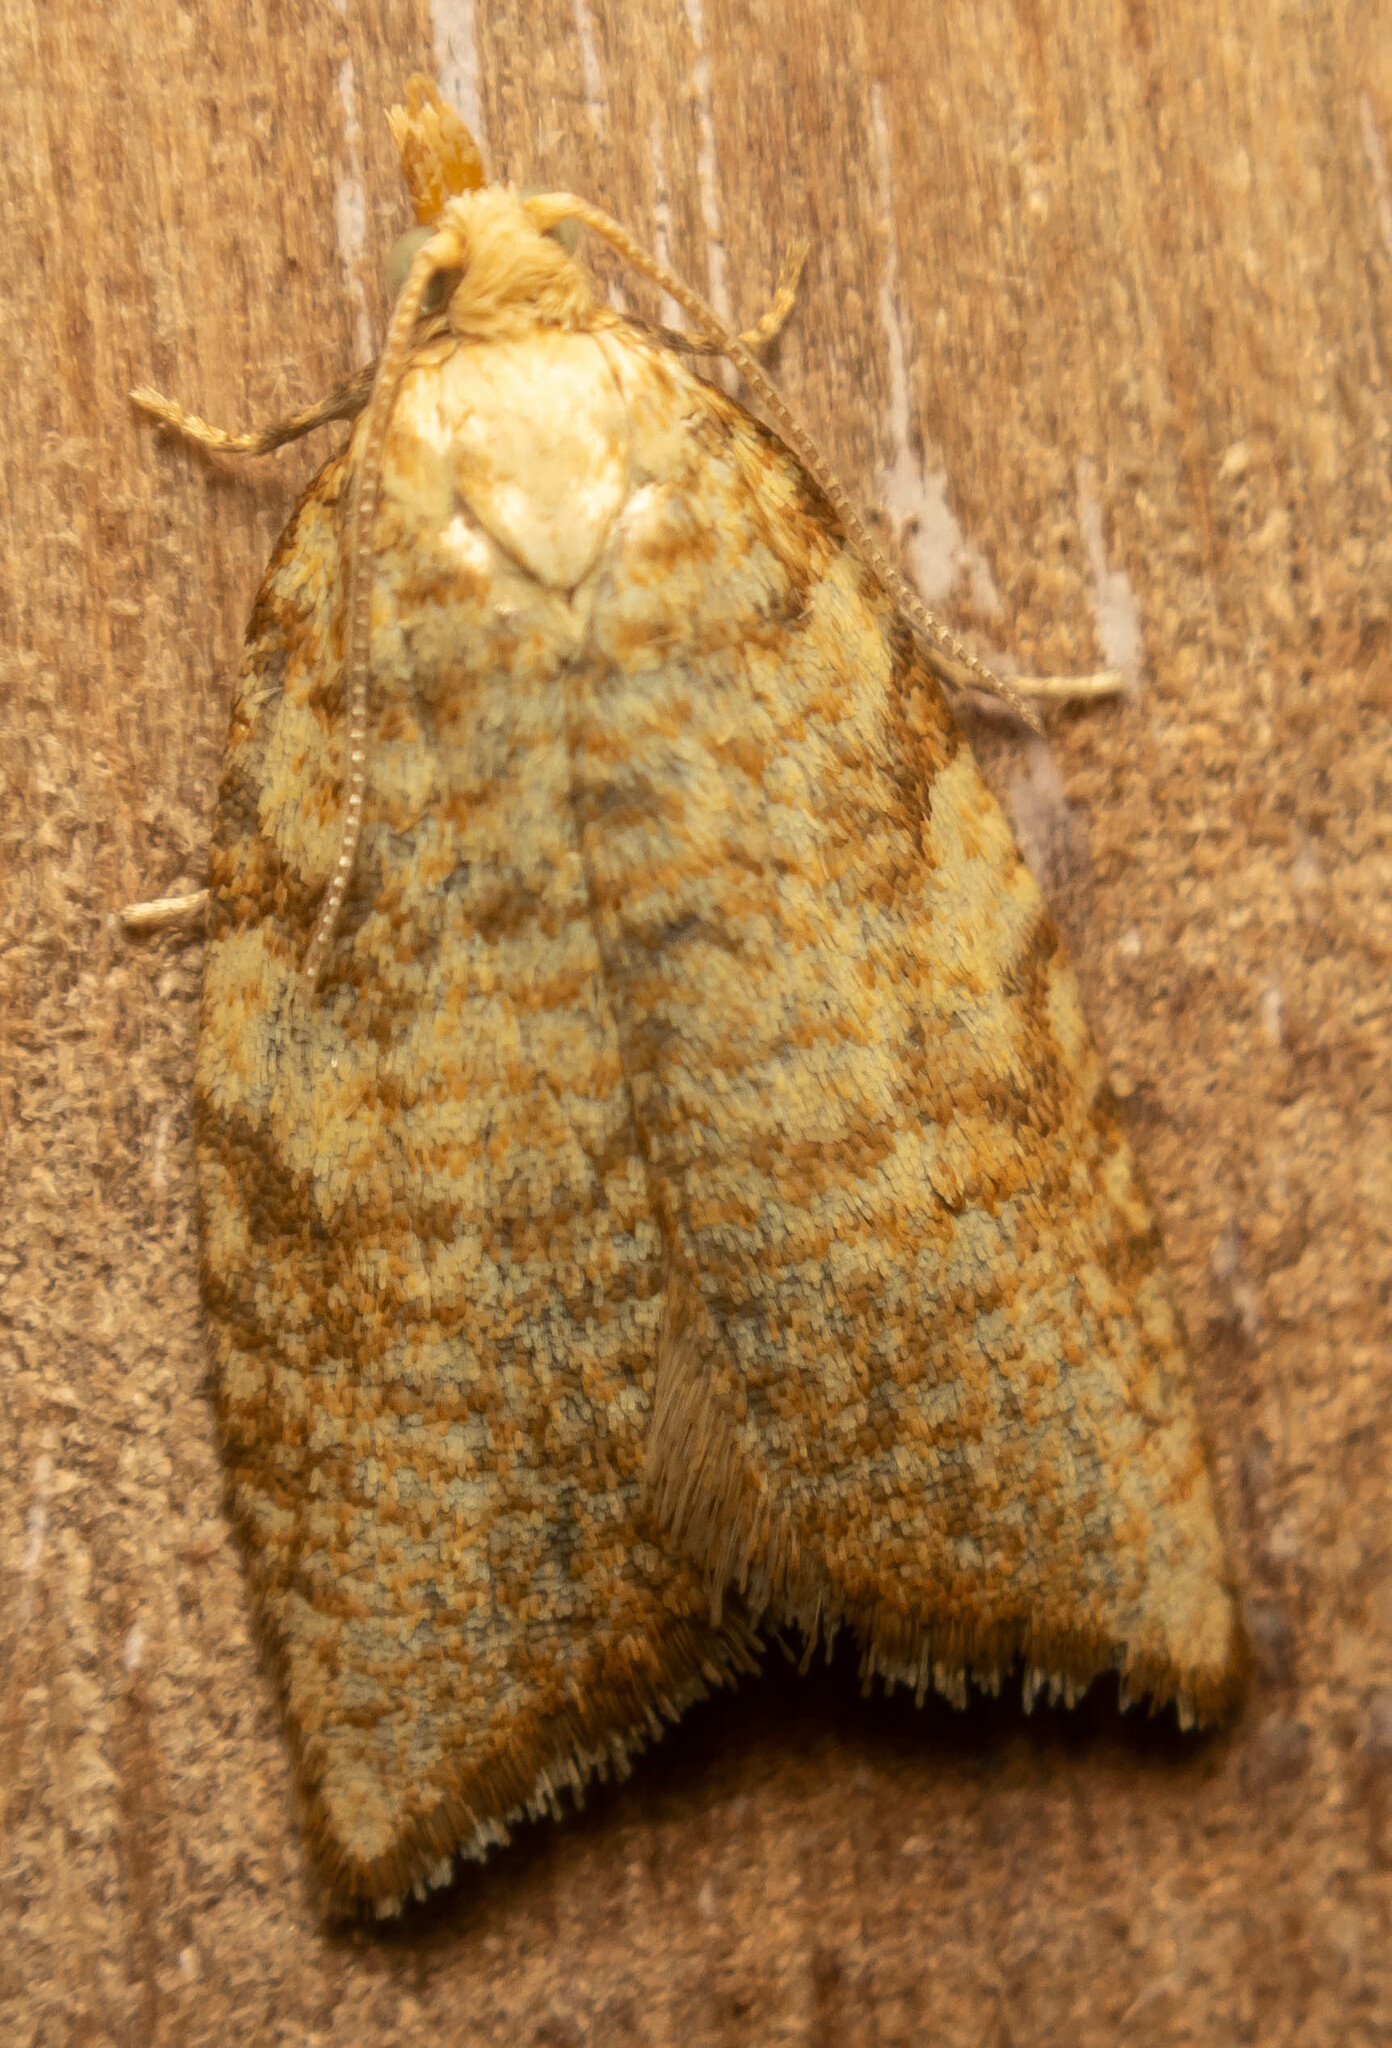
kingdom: Animalia
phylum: Arthropoda
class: Insecta
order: Lepidoptera
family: Tortricidae
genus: Aleimma
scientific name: Aleimma loeflingiana
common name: Yellow oak button
